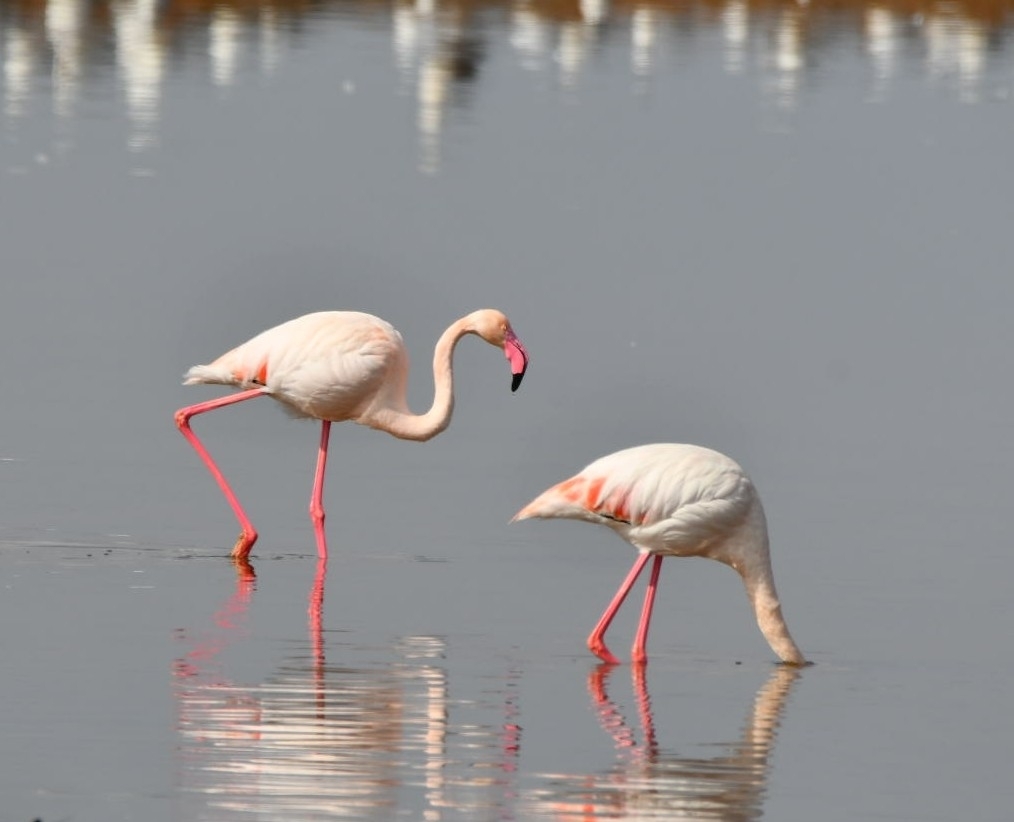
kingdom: Animalia
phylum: Chordata
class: Aves
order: Phoenicopteriformes
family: Phoenicopteridae
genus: Phoenicopterus
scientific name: Phoenicopterus roseus
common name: Greater flamingo
